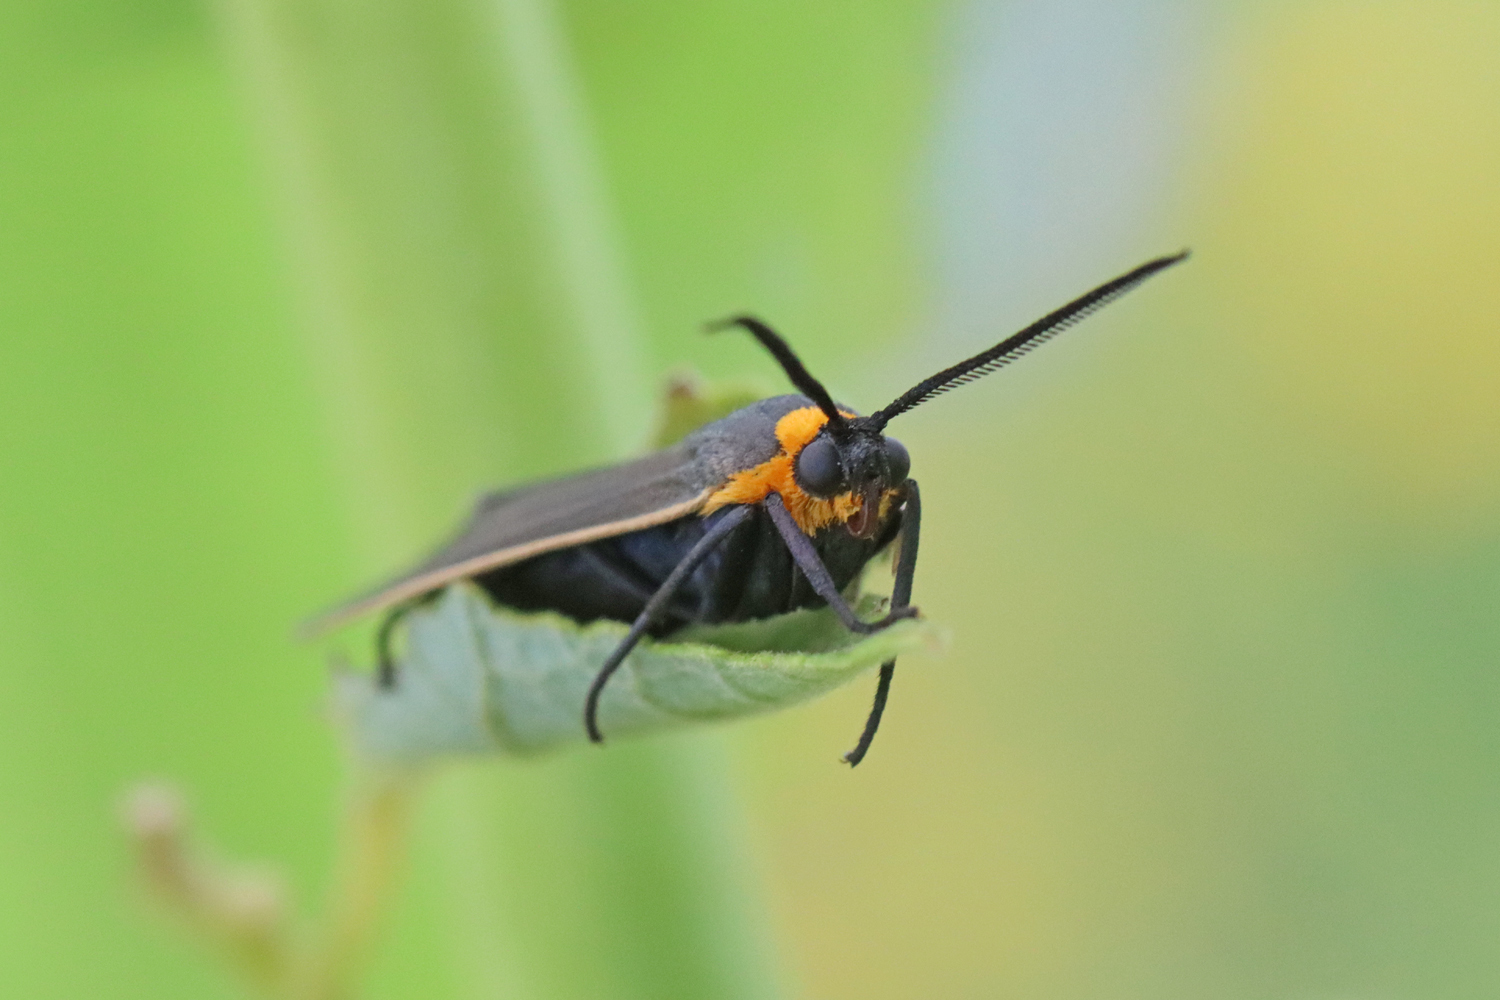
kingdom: Animalia
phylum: Arthropoda
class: Insecta
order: Lepidoptera
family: Erebidae
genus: Cisseps
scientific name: Cisseps fulvicollis
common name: Yellow-collared scape moth
